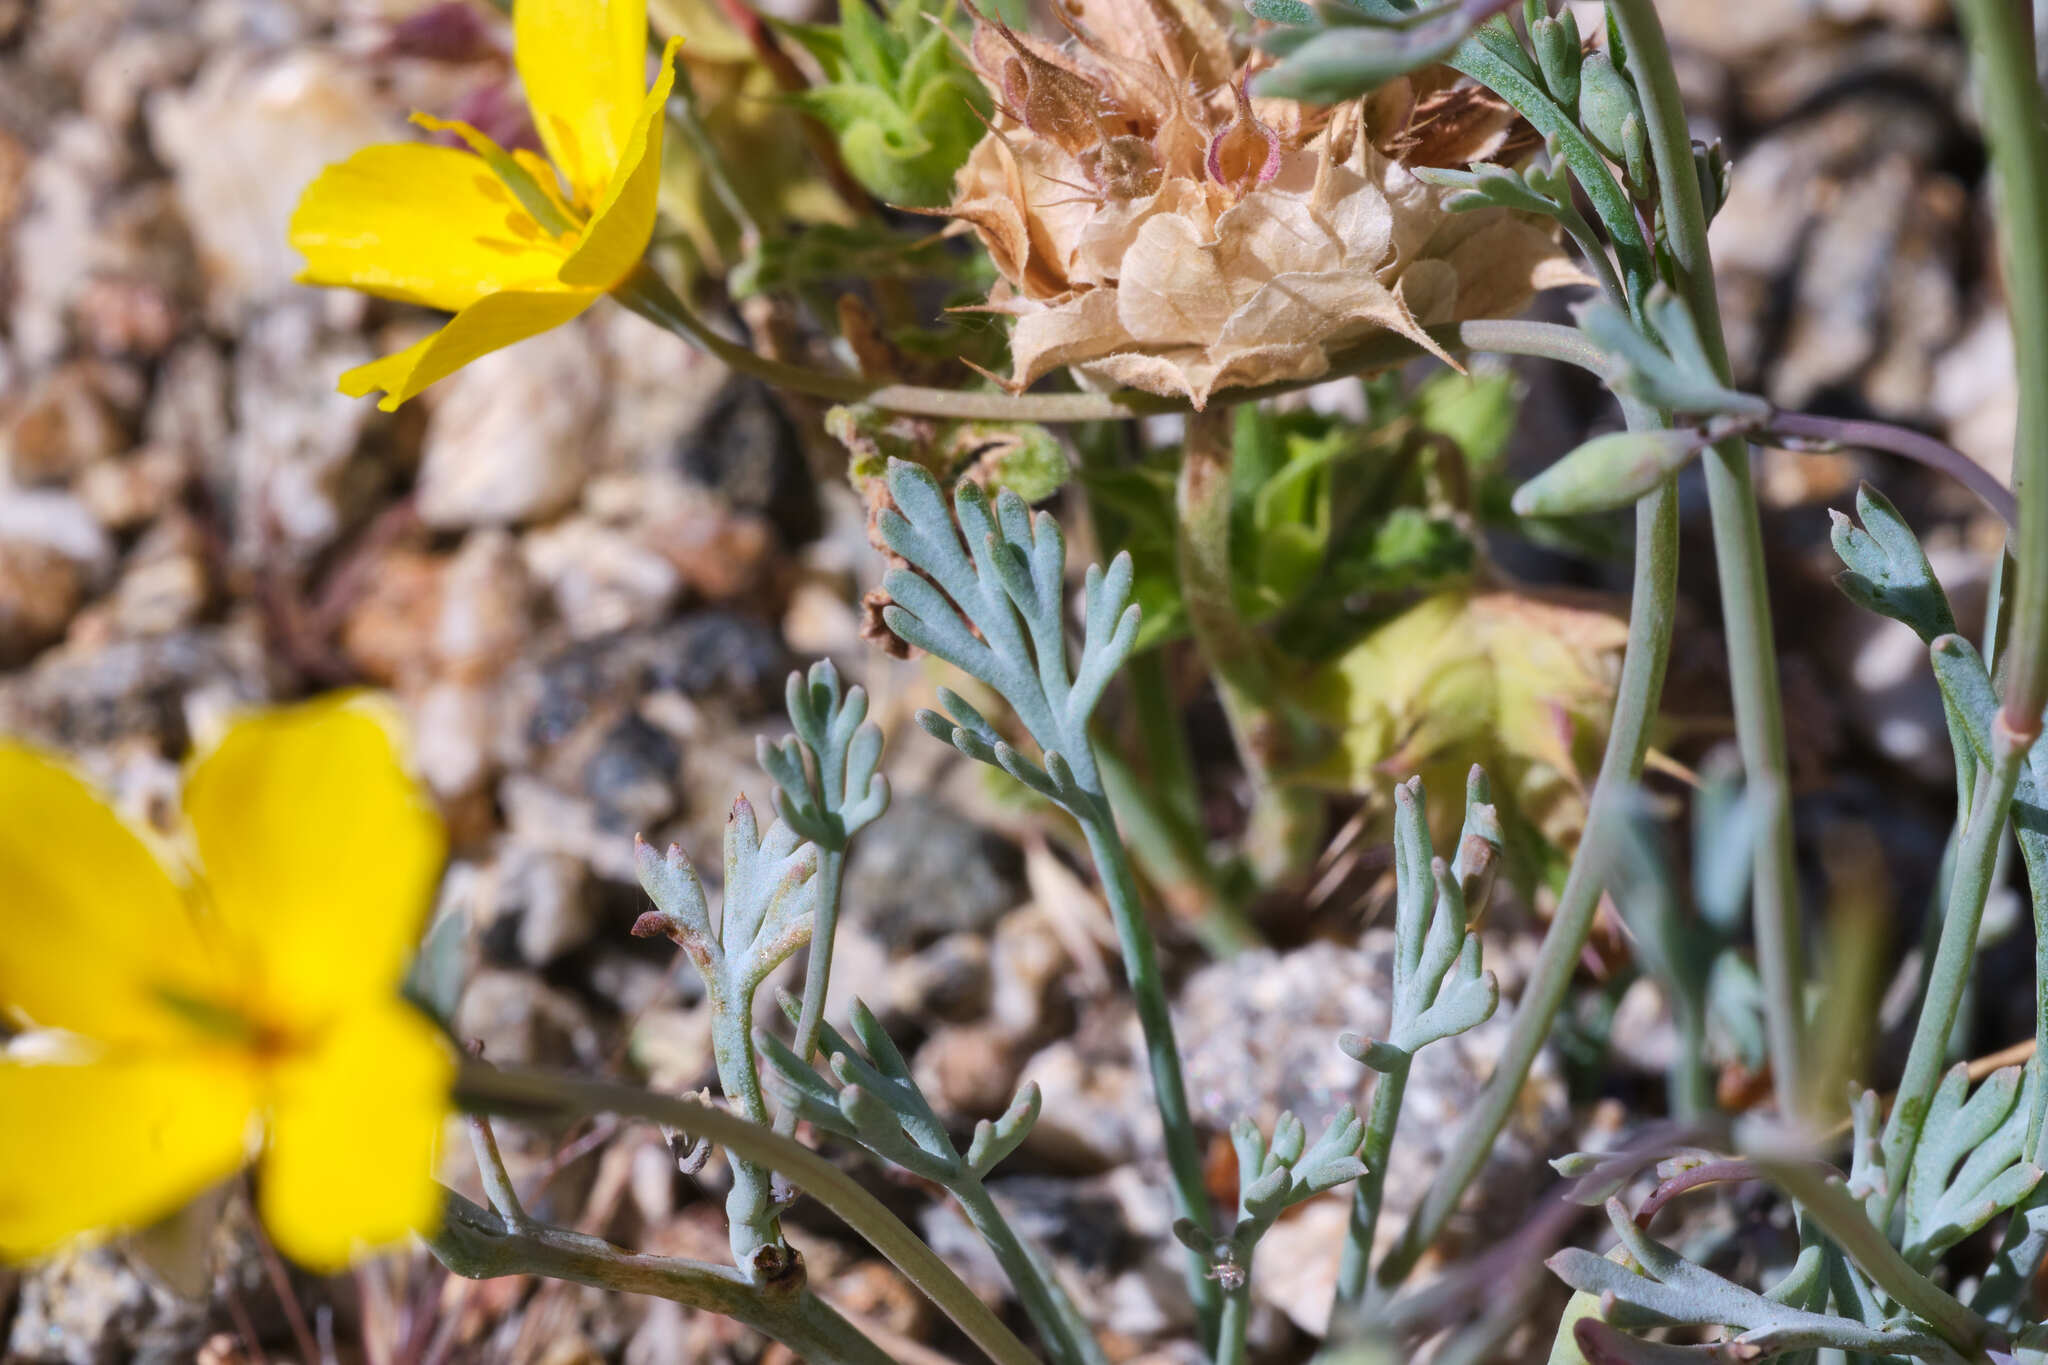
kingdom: Plantae
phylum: Tracheophyta
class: Magnoliopsida
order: Ranunculales
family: Papaveraceae
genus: Eschscholzia
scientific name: Eschscholzia minutiflora
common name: Small-flower california-poppy
